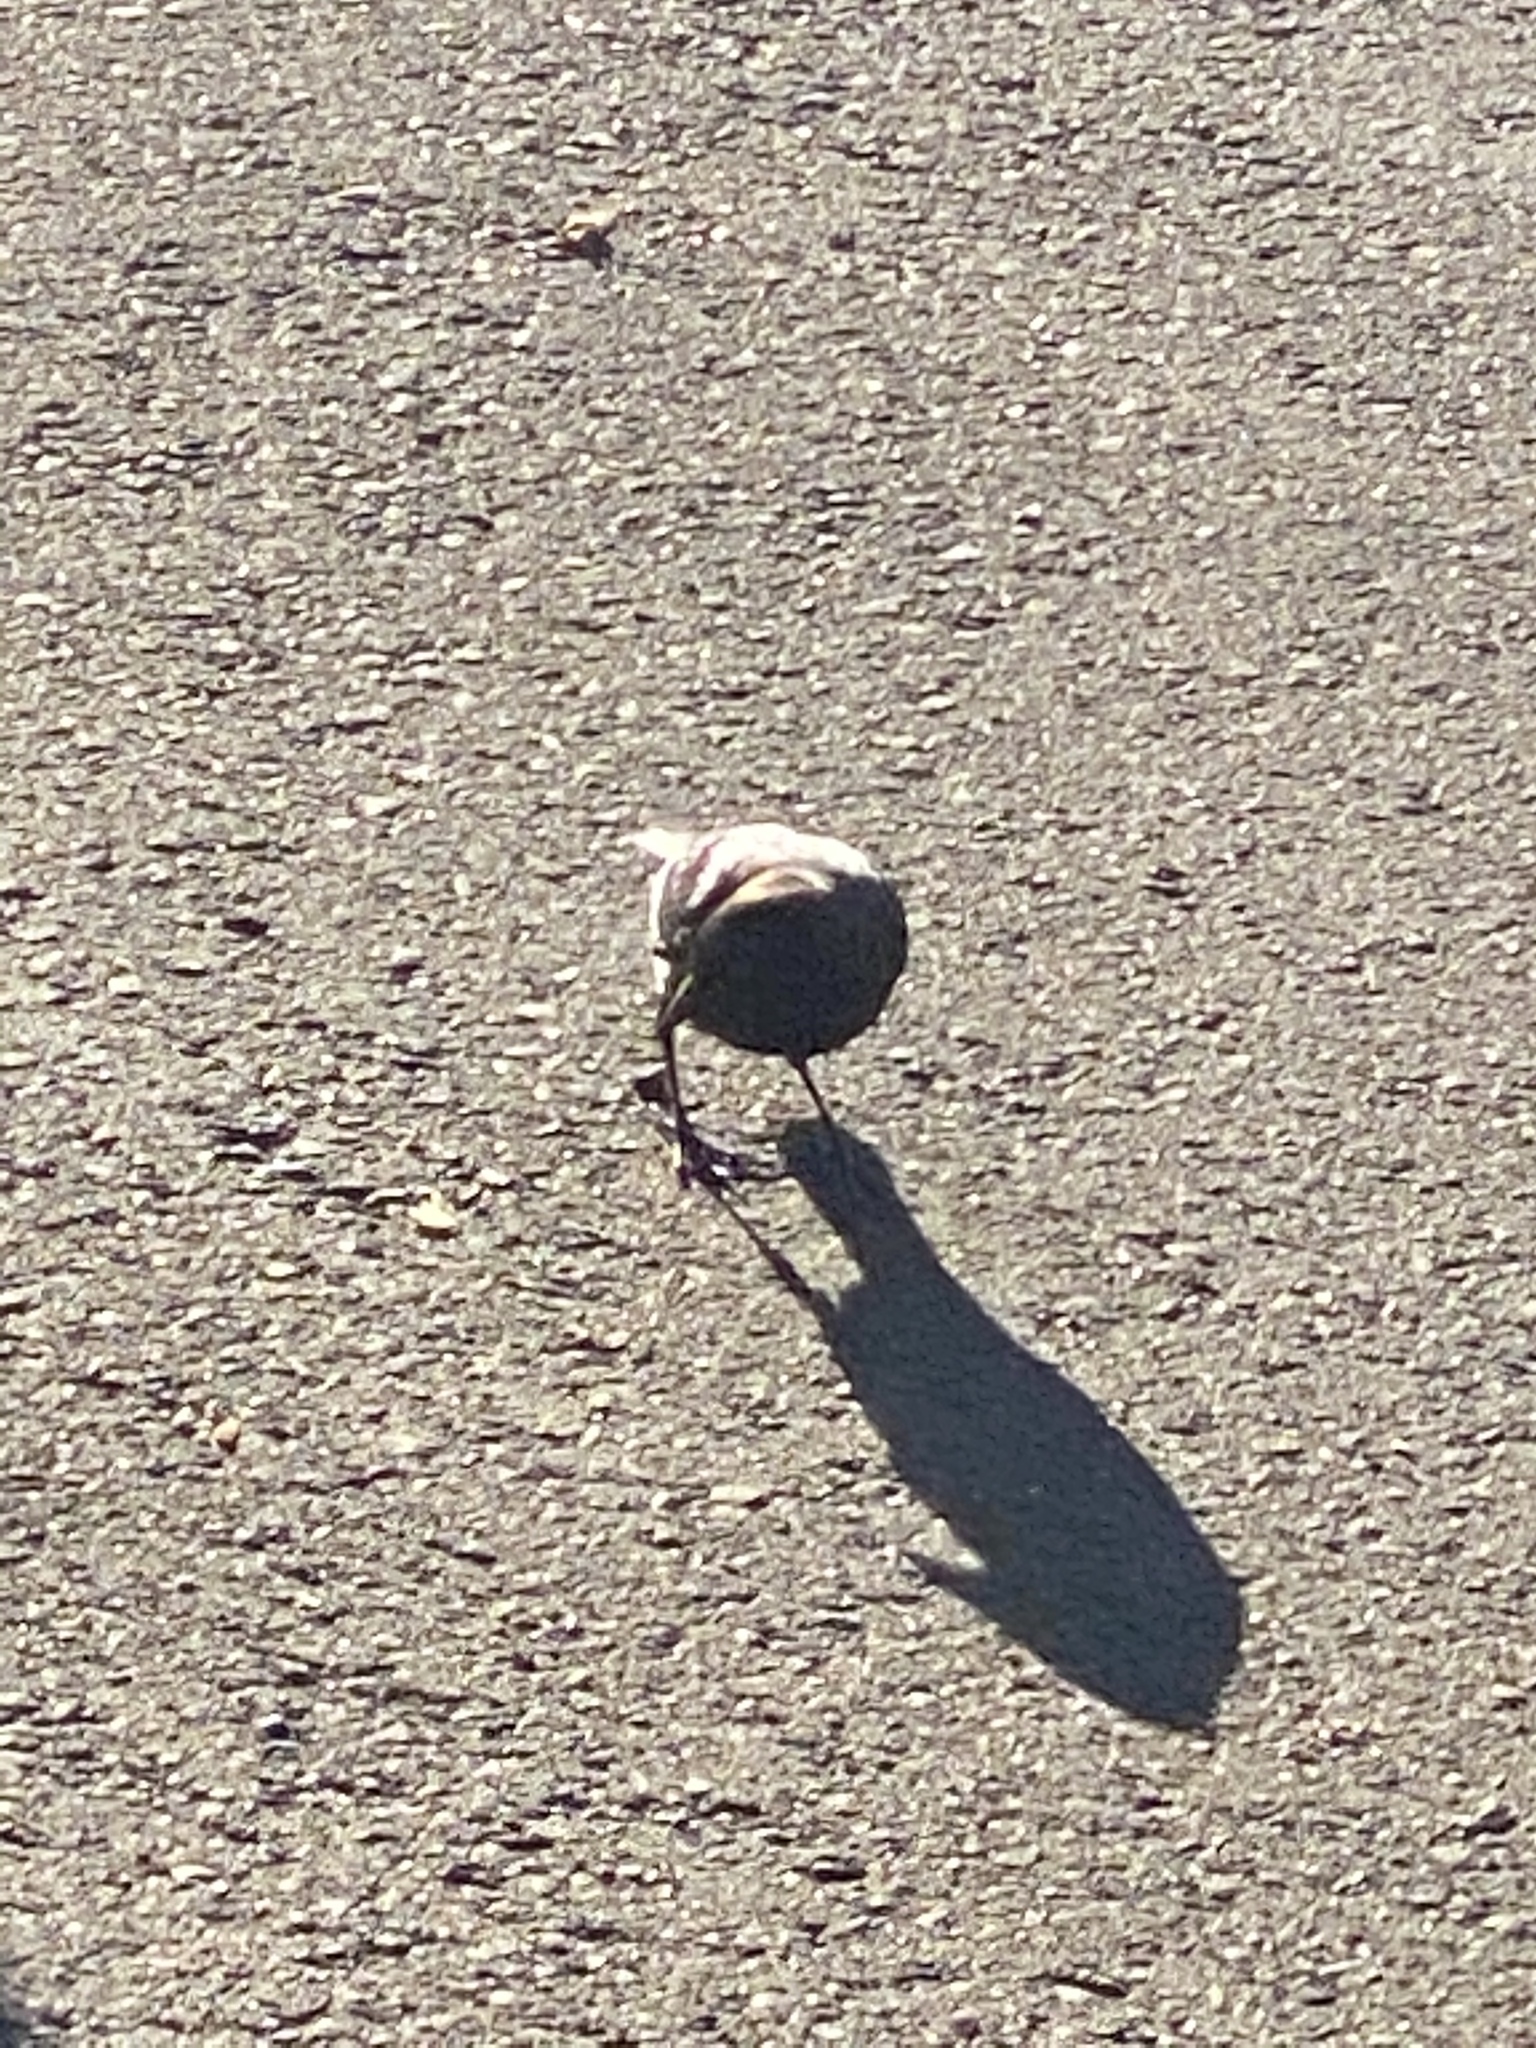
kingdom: Animalia
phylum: Chordata
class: Aves
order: Passeriformes
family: Icteridae
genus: Euphagus
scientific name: Euphagus cyanocephalus
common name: Brewer's blackbird
